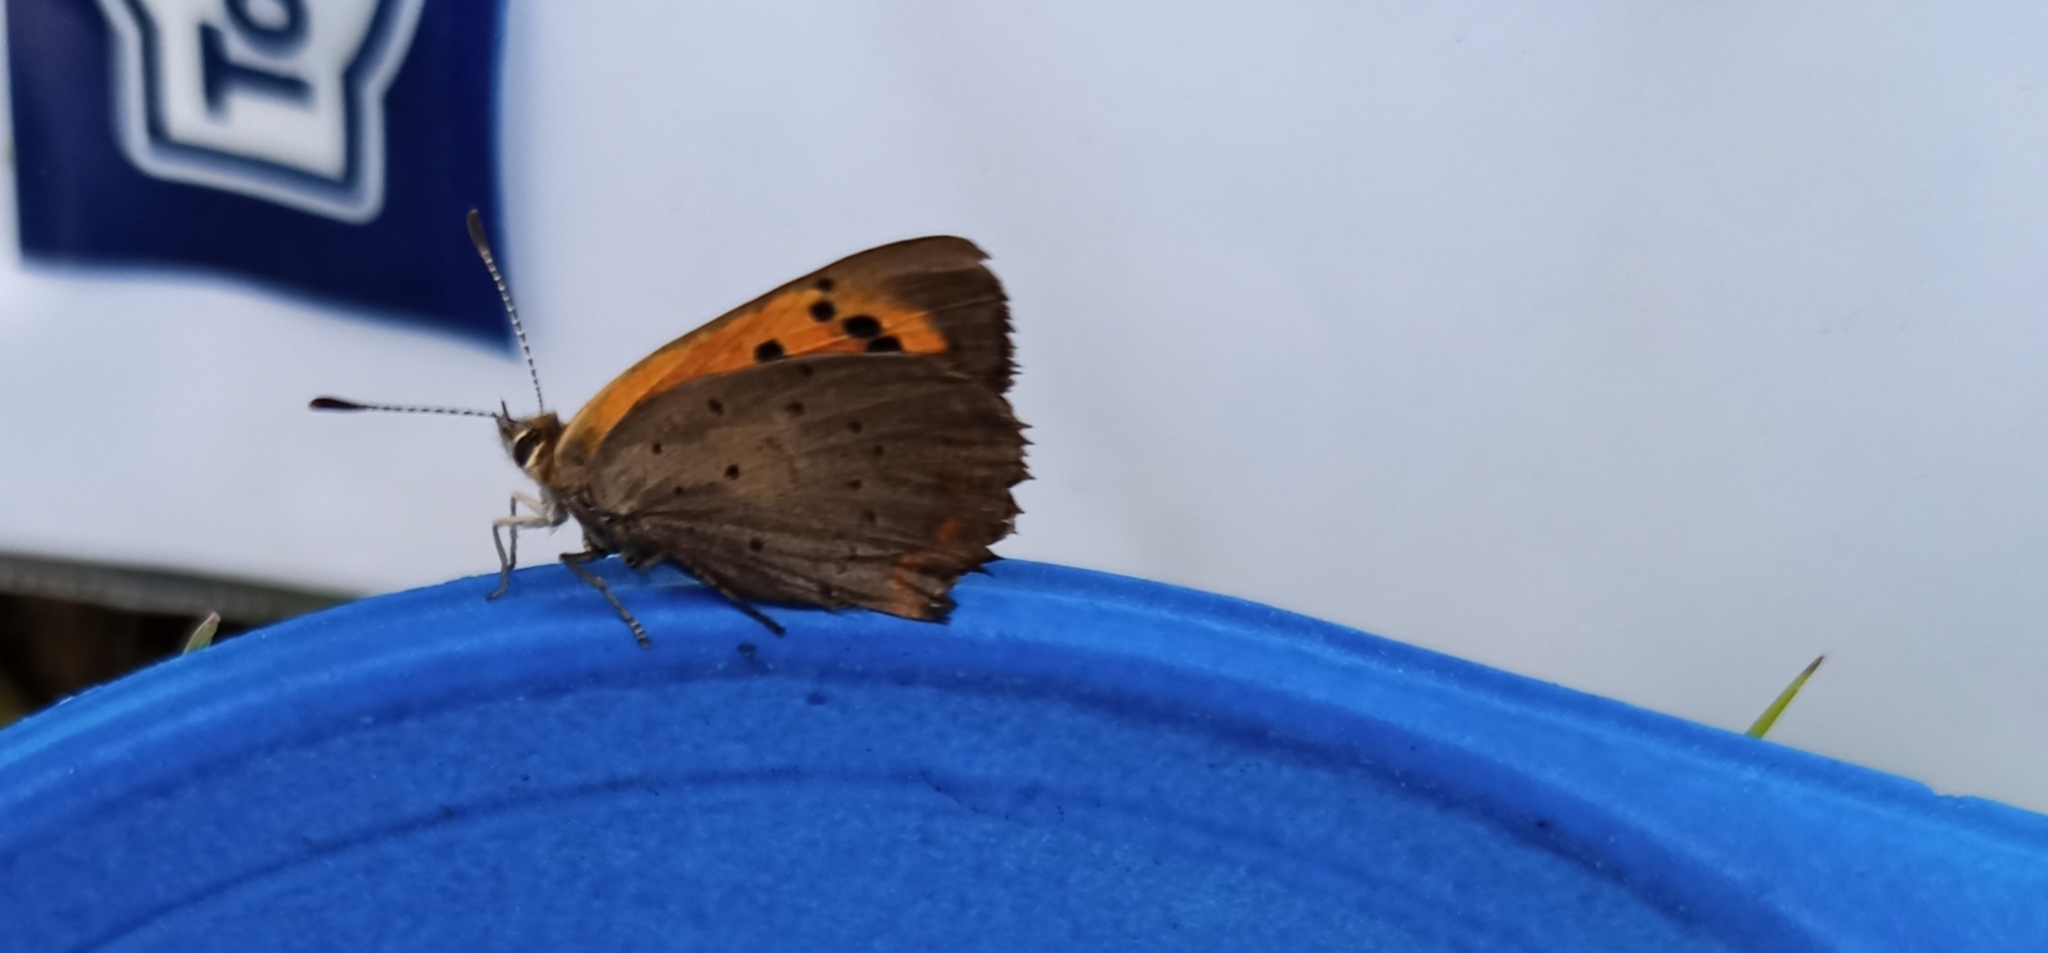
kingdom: Animalia
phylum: Arthropoda
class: Insecta
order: Lepidoptera
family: Lycaenidae
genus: Lycaena
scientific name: Lycaena phlaeas
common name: Small copper
